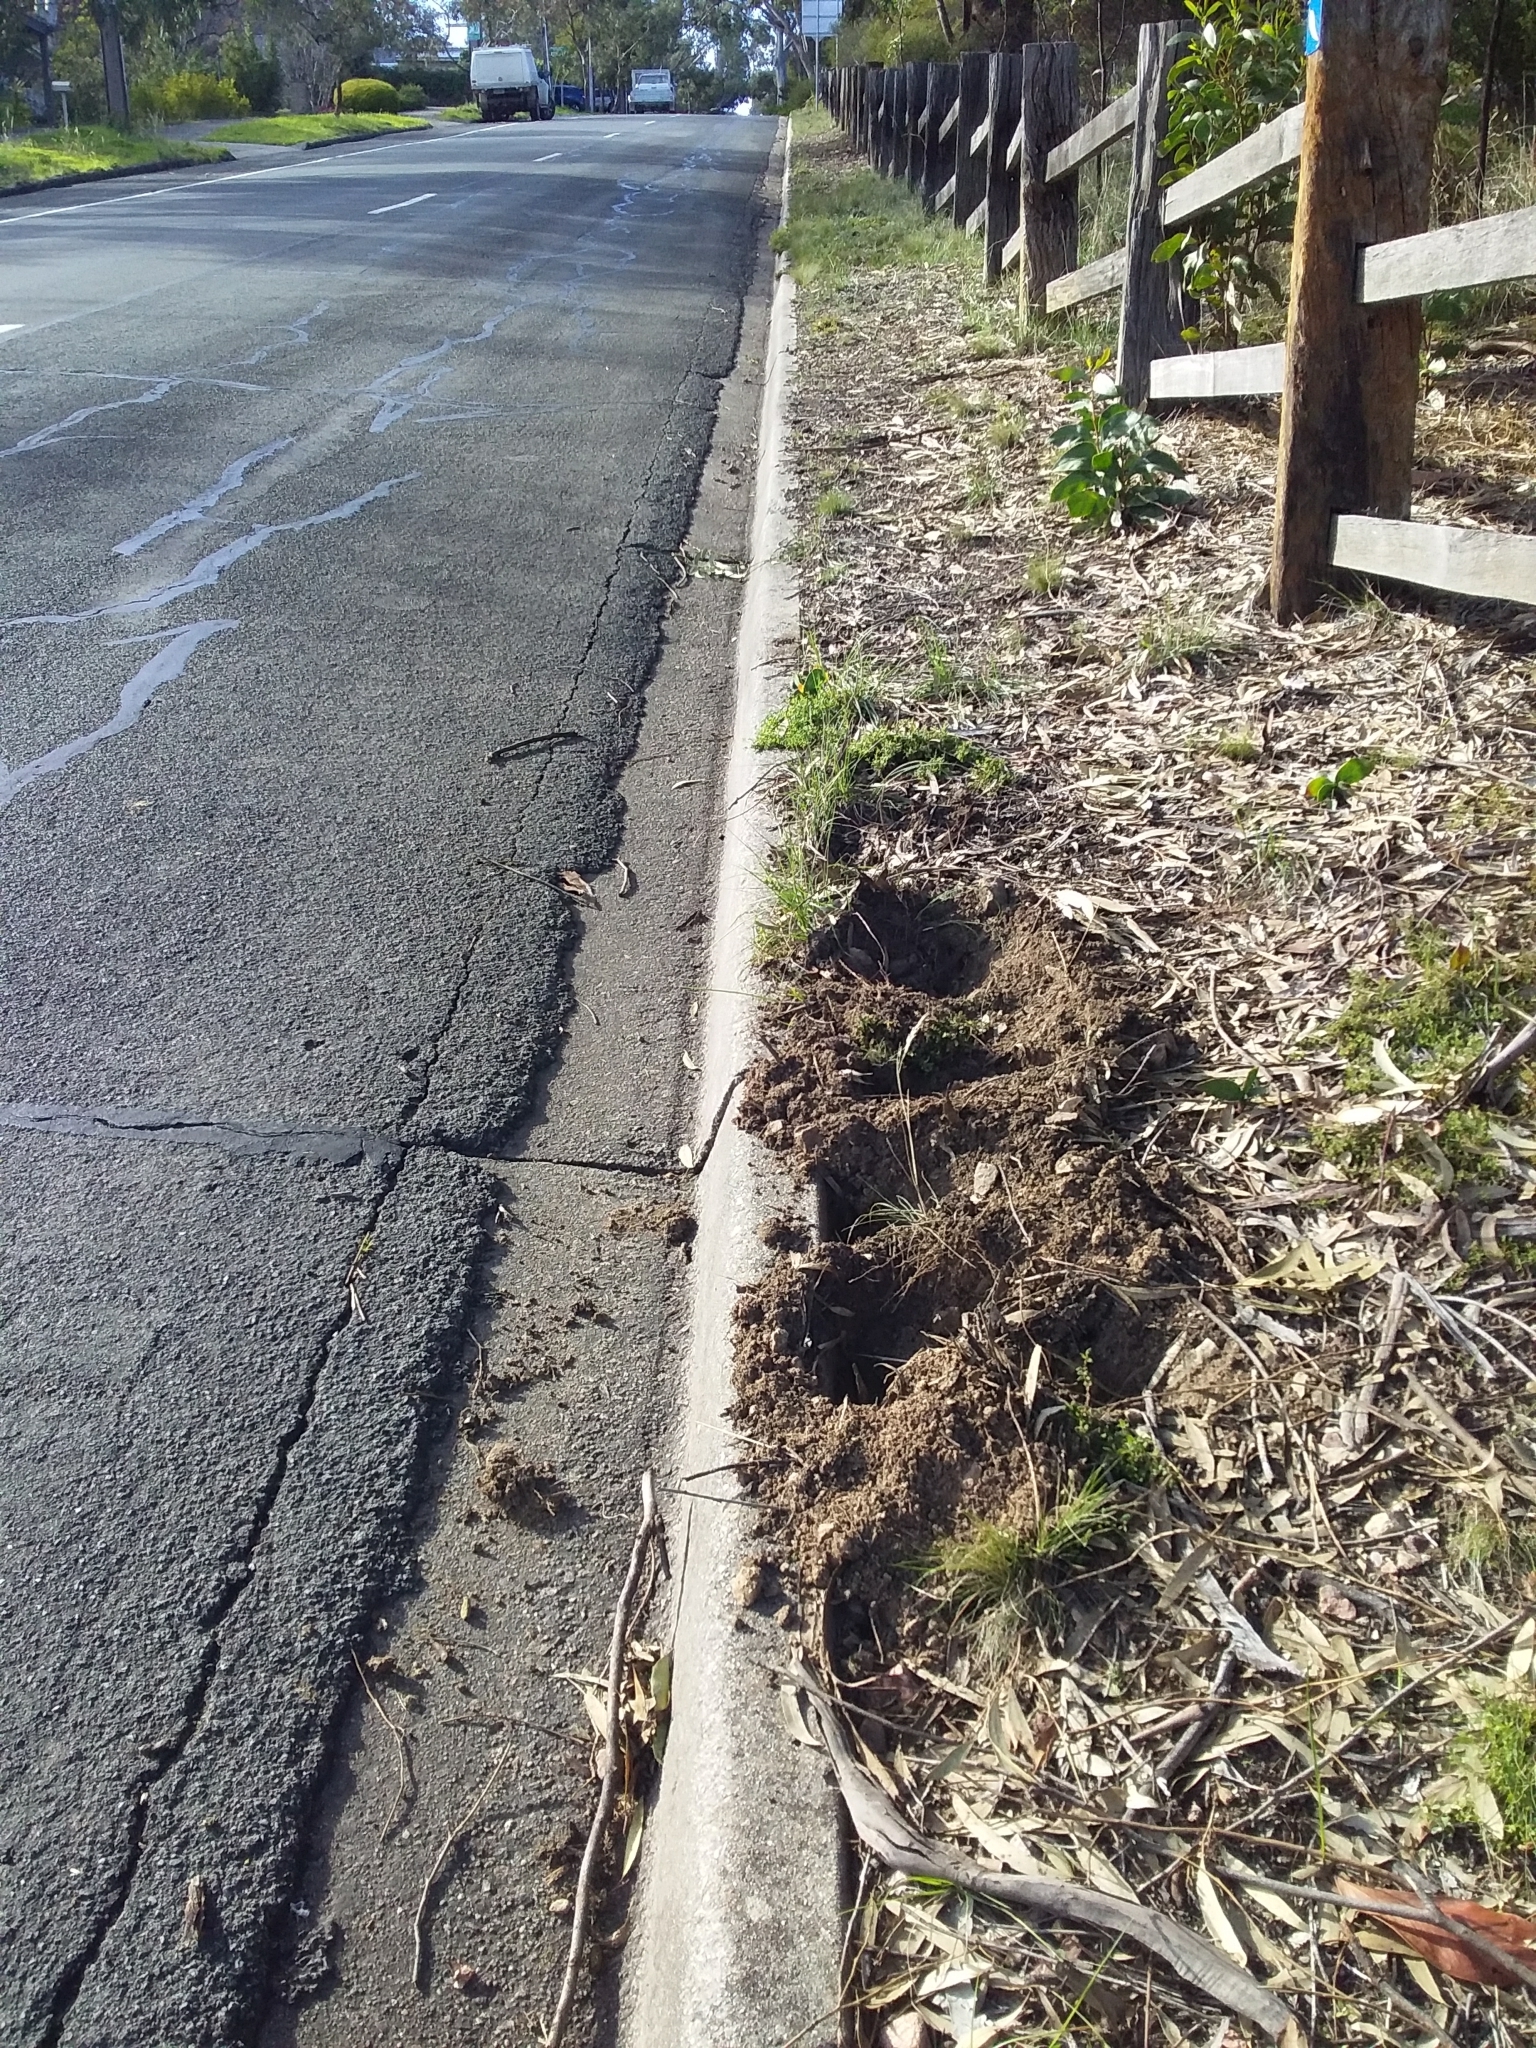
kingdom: Animalia
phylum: Chordata
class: Mammalia
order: Monotremata
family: Tachyglossidae
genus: Tachyglossus
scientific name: Tachyglossus aculeatus
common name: Short-beaked echidna
